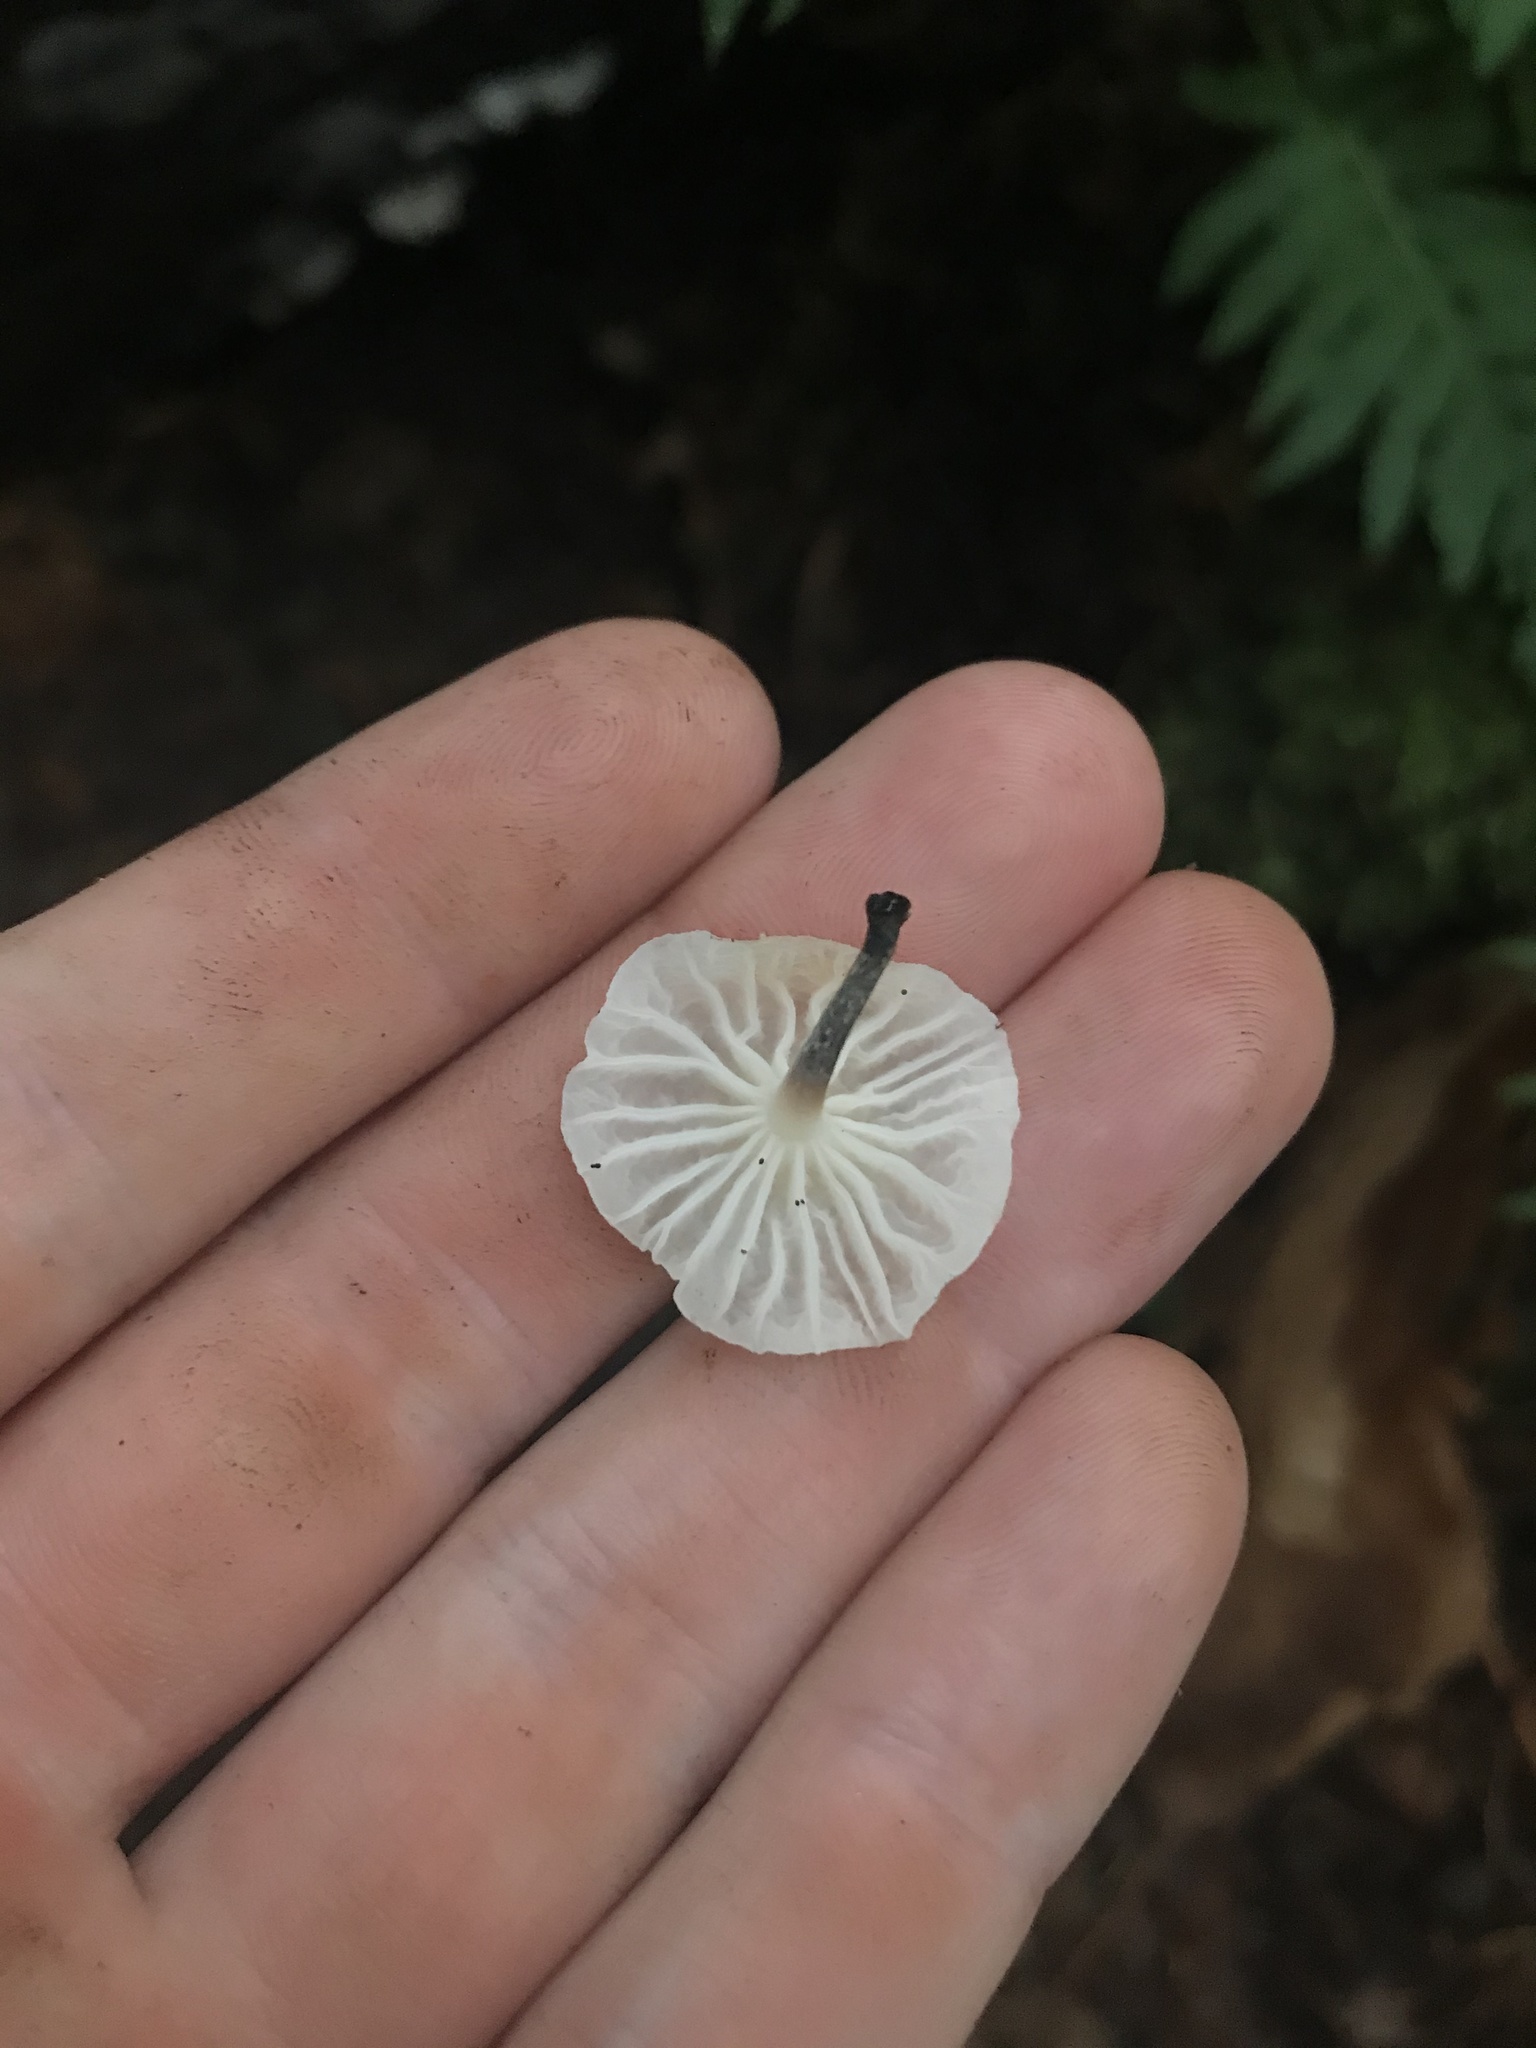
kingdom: Fungi
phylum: Basidiomycota
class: Agaricomycetes
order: Agaricales
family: Omphalotaceae
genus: Marasmiellus
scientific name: Marasmiellus candidus
